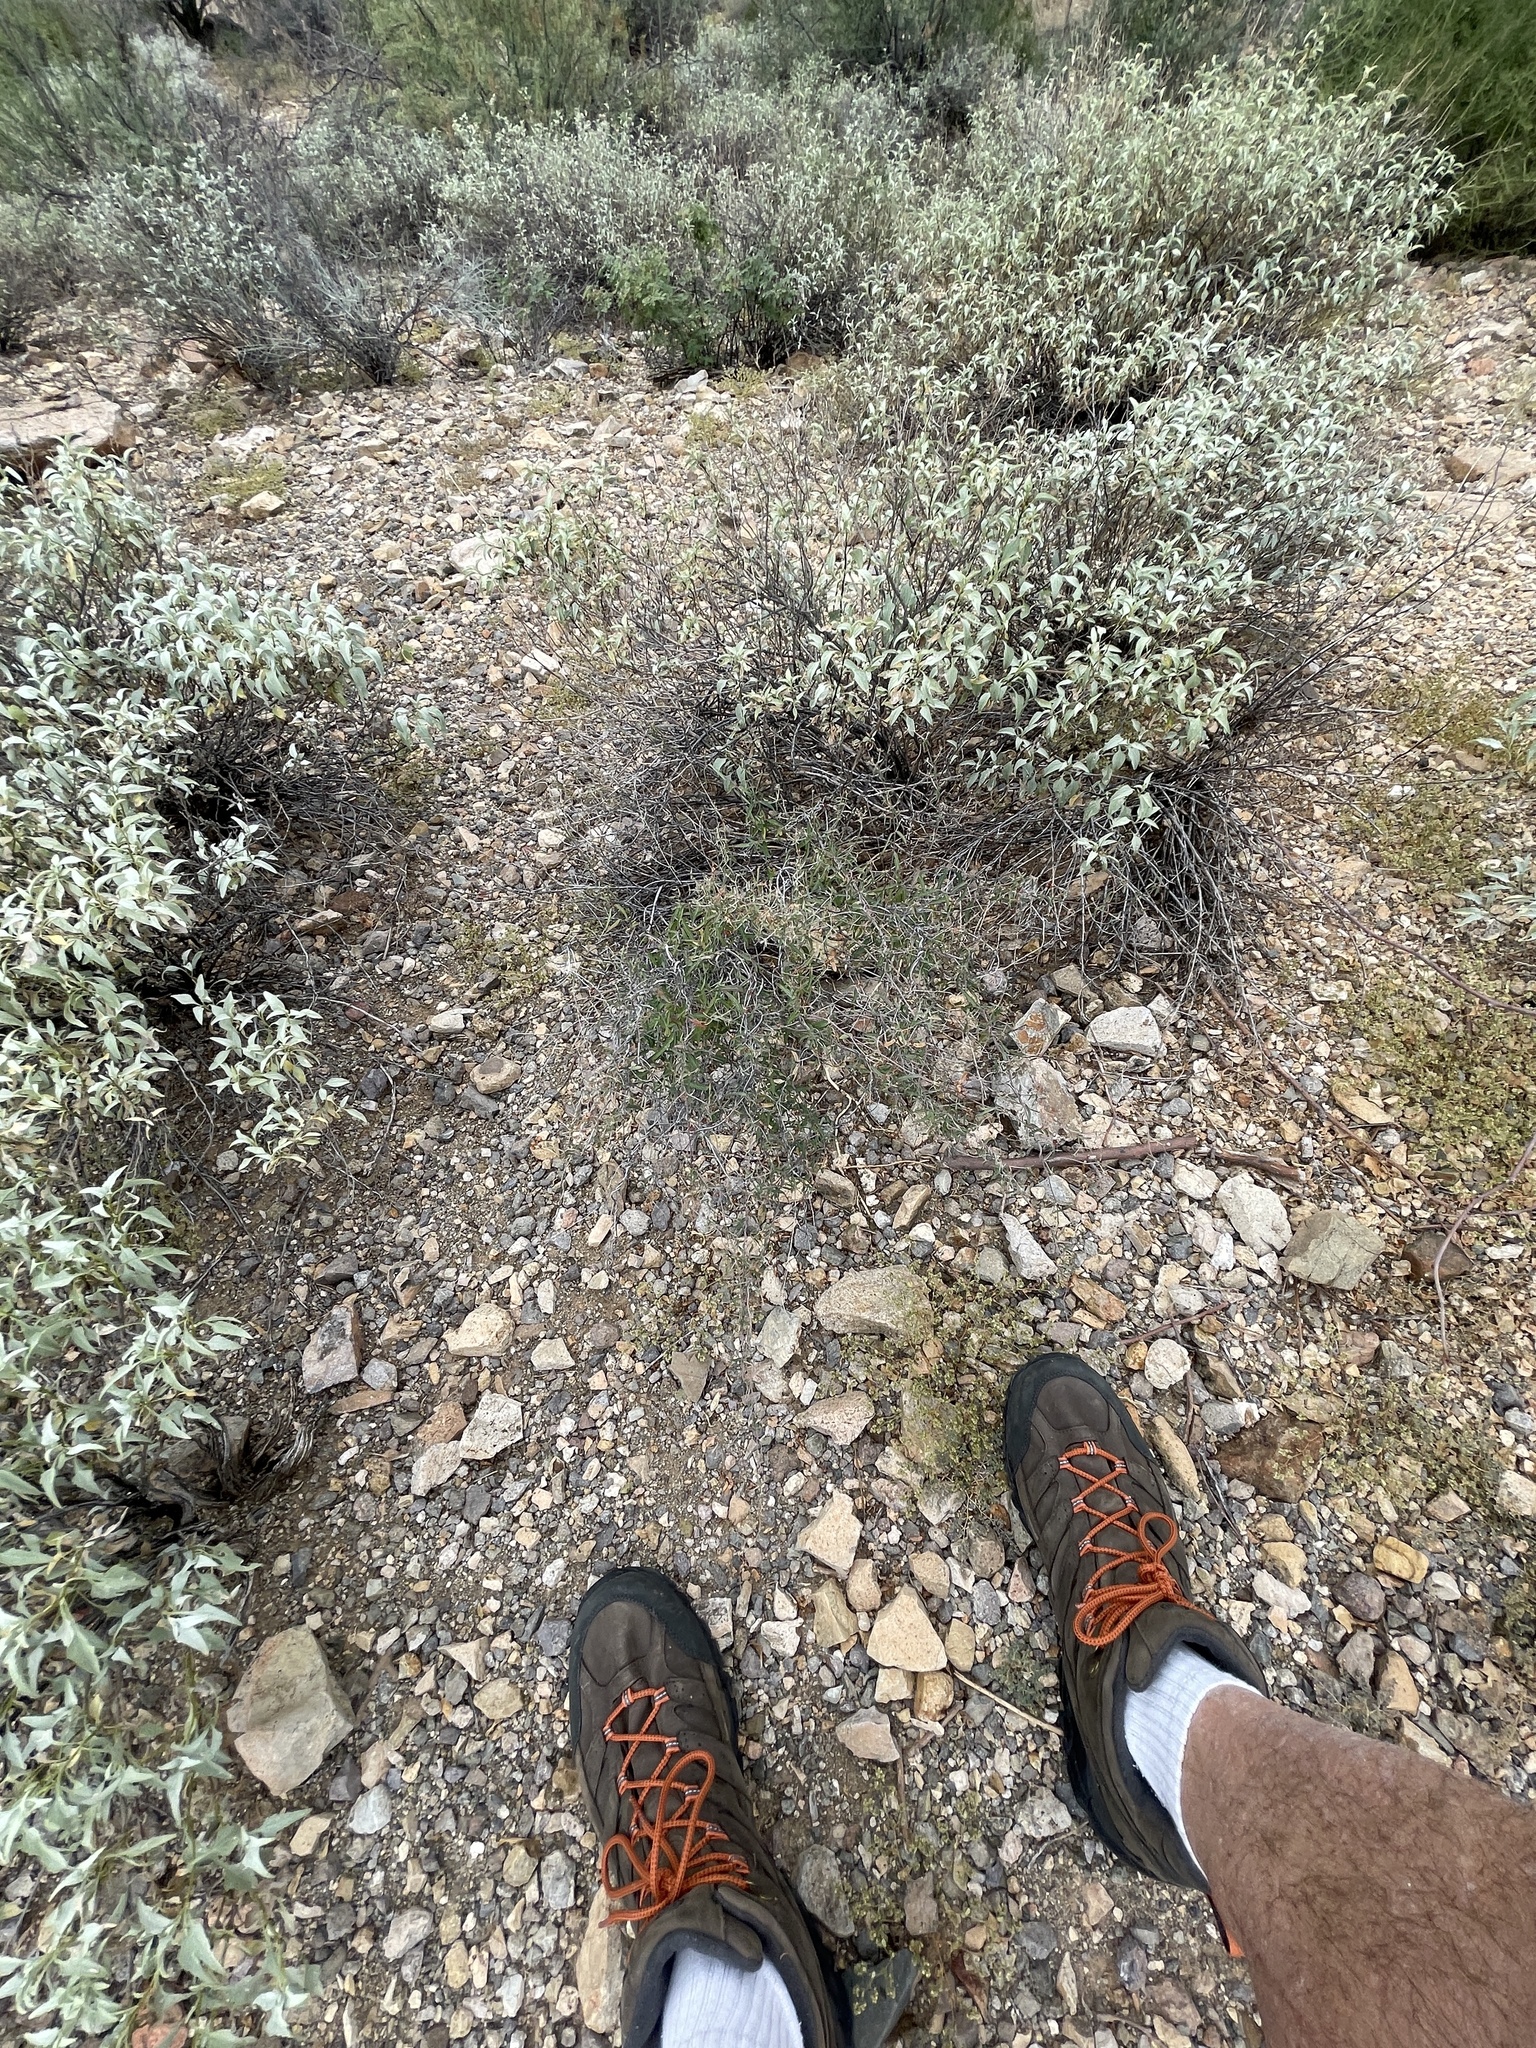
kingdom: Plantae
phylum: Tracheophyta
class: Magnoliopsida
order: Malpighiales
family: Malpighiaceae
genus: Cottsia
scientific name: Cottsia gracilis
